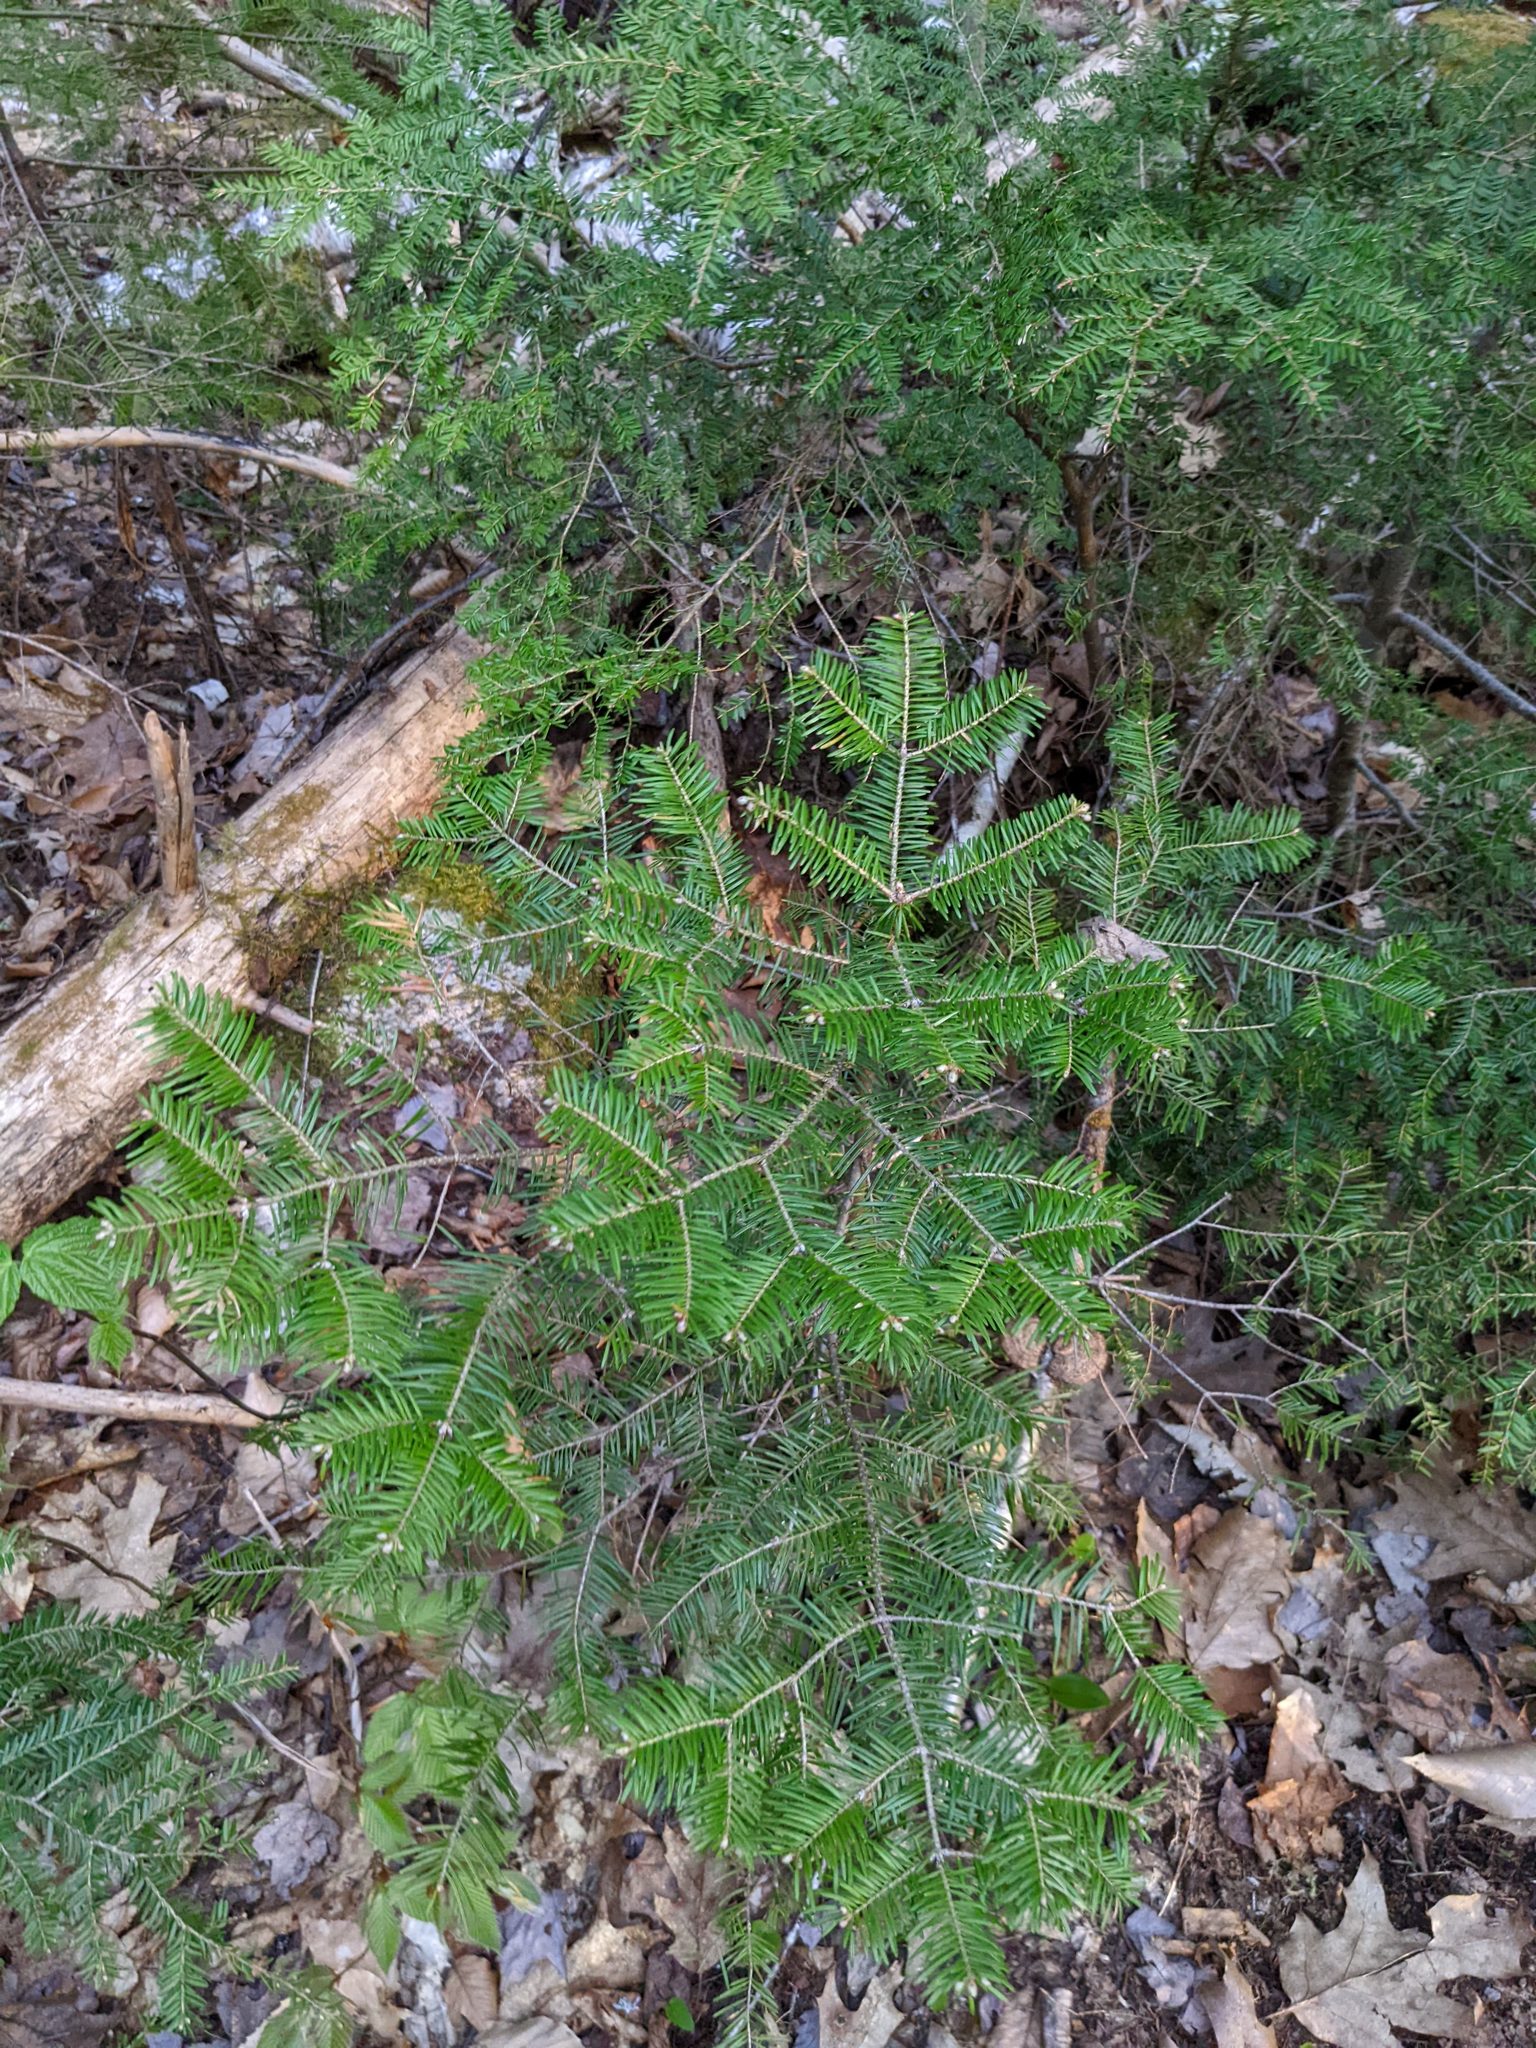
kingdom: Plantae
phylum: Tracheophyta
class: Pinopsida
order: Pinales
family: Pinaceae
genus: Abies
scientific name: Abies balsamea
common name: Balsam fir
